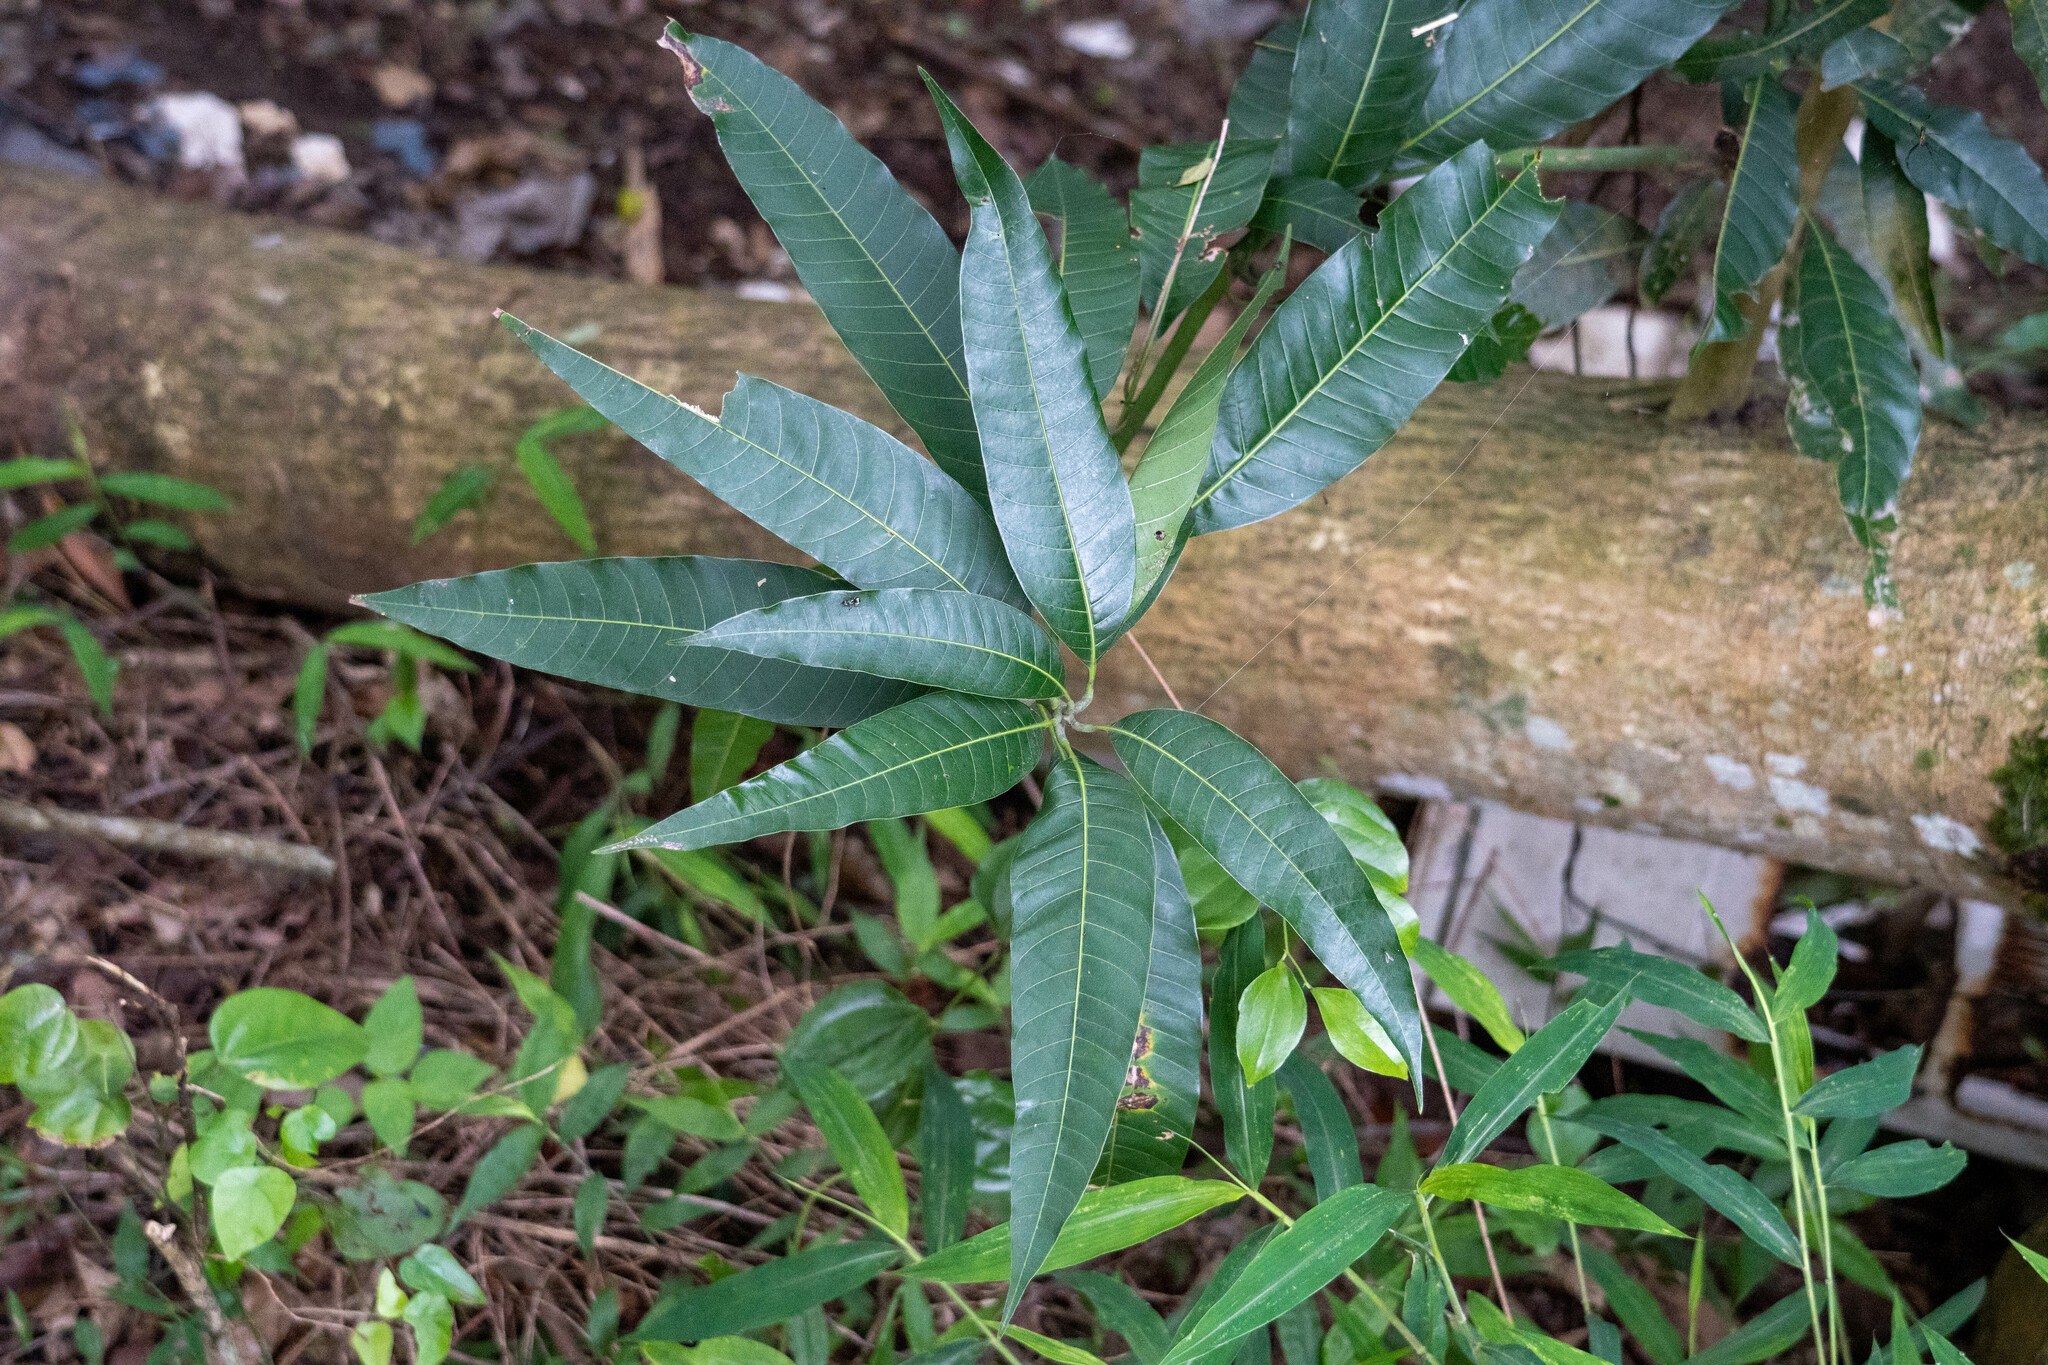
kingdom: Plantae
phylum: Tracheophyta
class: Magnoliopsida
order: Sapindales
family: Anacardiaceae
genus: Mangifera
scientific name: Mangifera indica
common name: Mango
